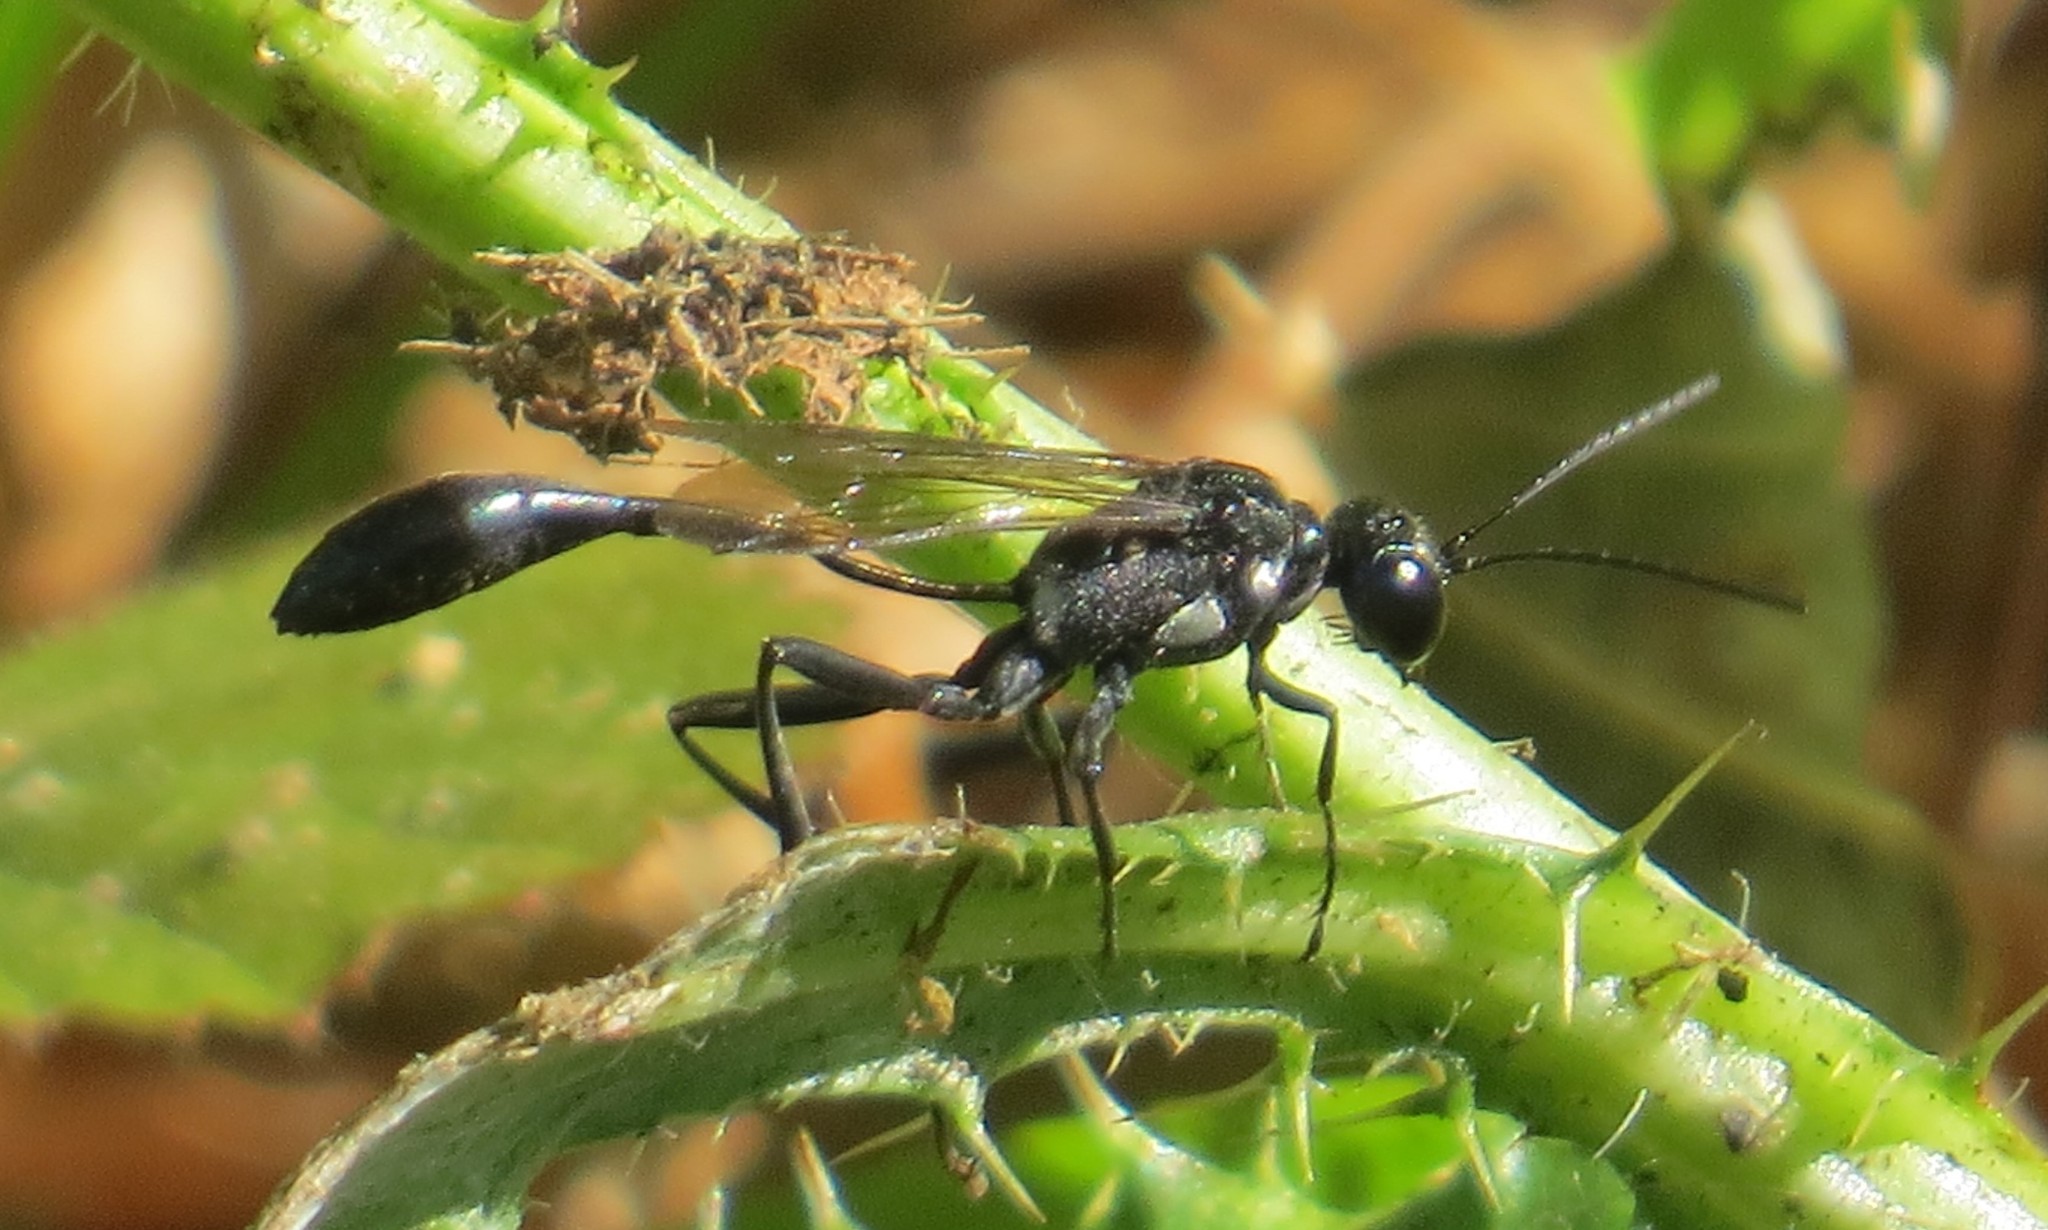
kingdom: Animalia
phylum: Arthropoda
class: Insecta
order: Hymenoptera
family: Sphecidae
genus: Eremnophila
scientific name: Eremnophila aureonotata
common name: Gold-marked thread-waisted wasp
